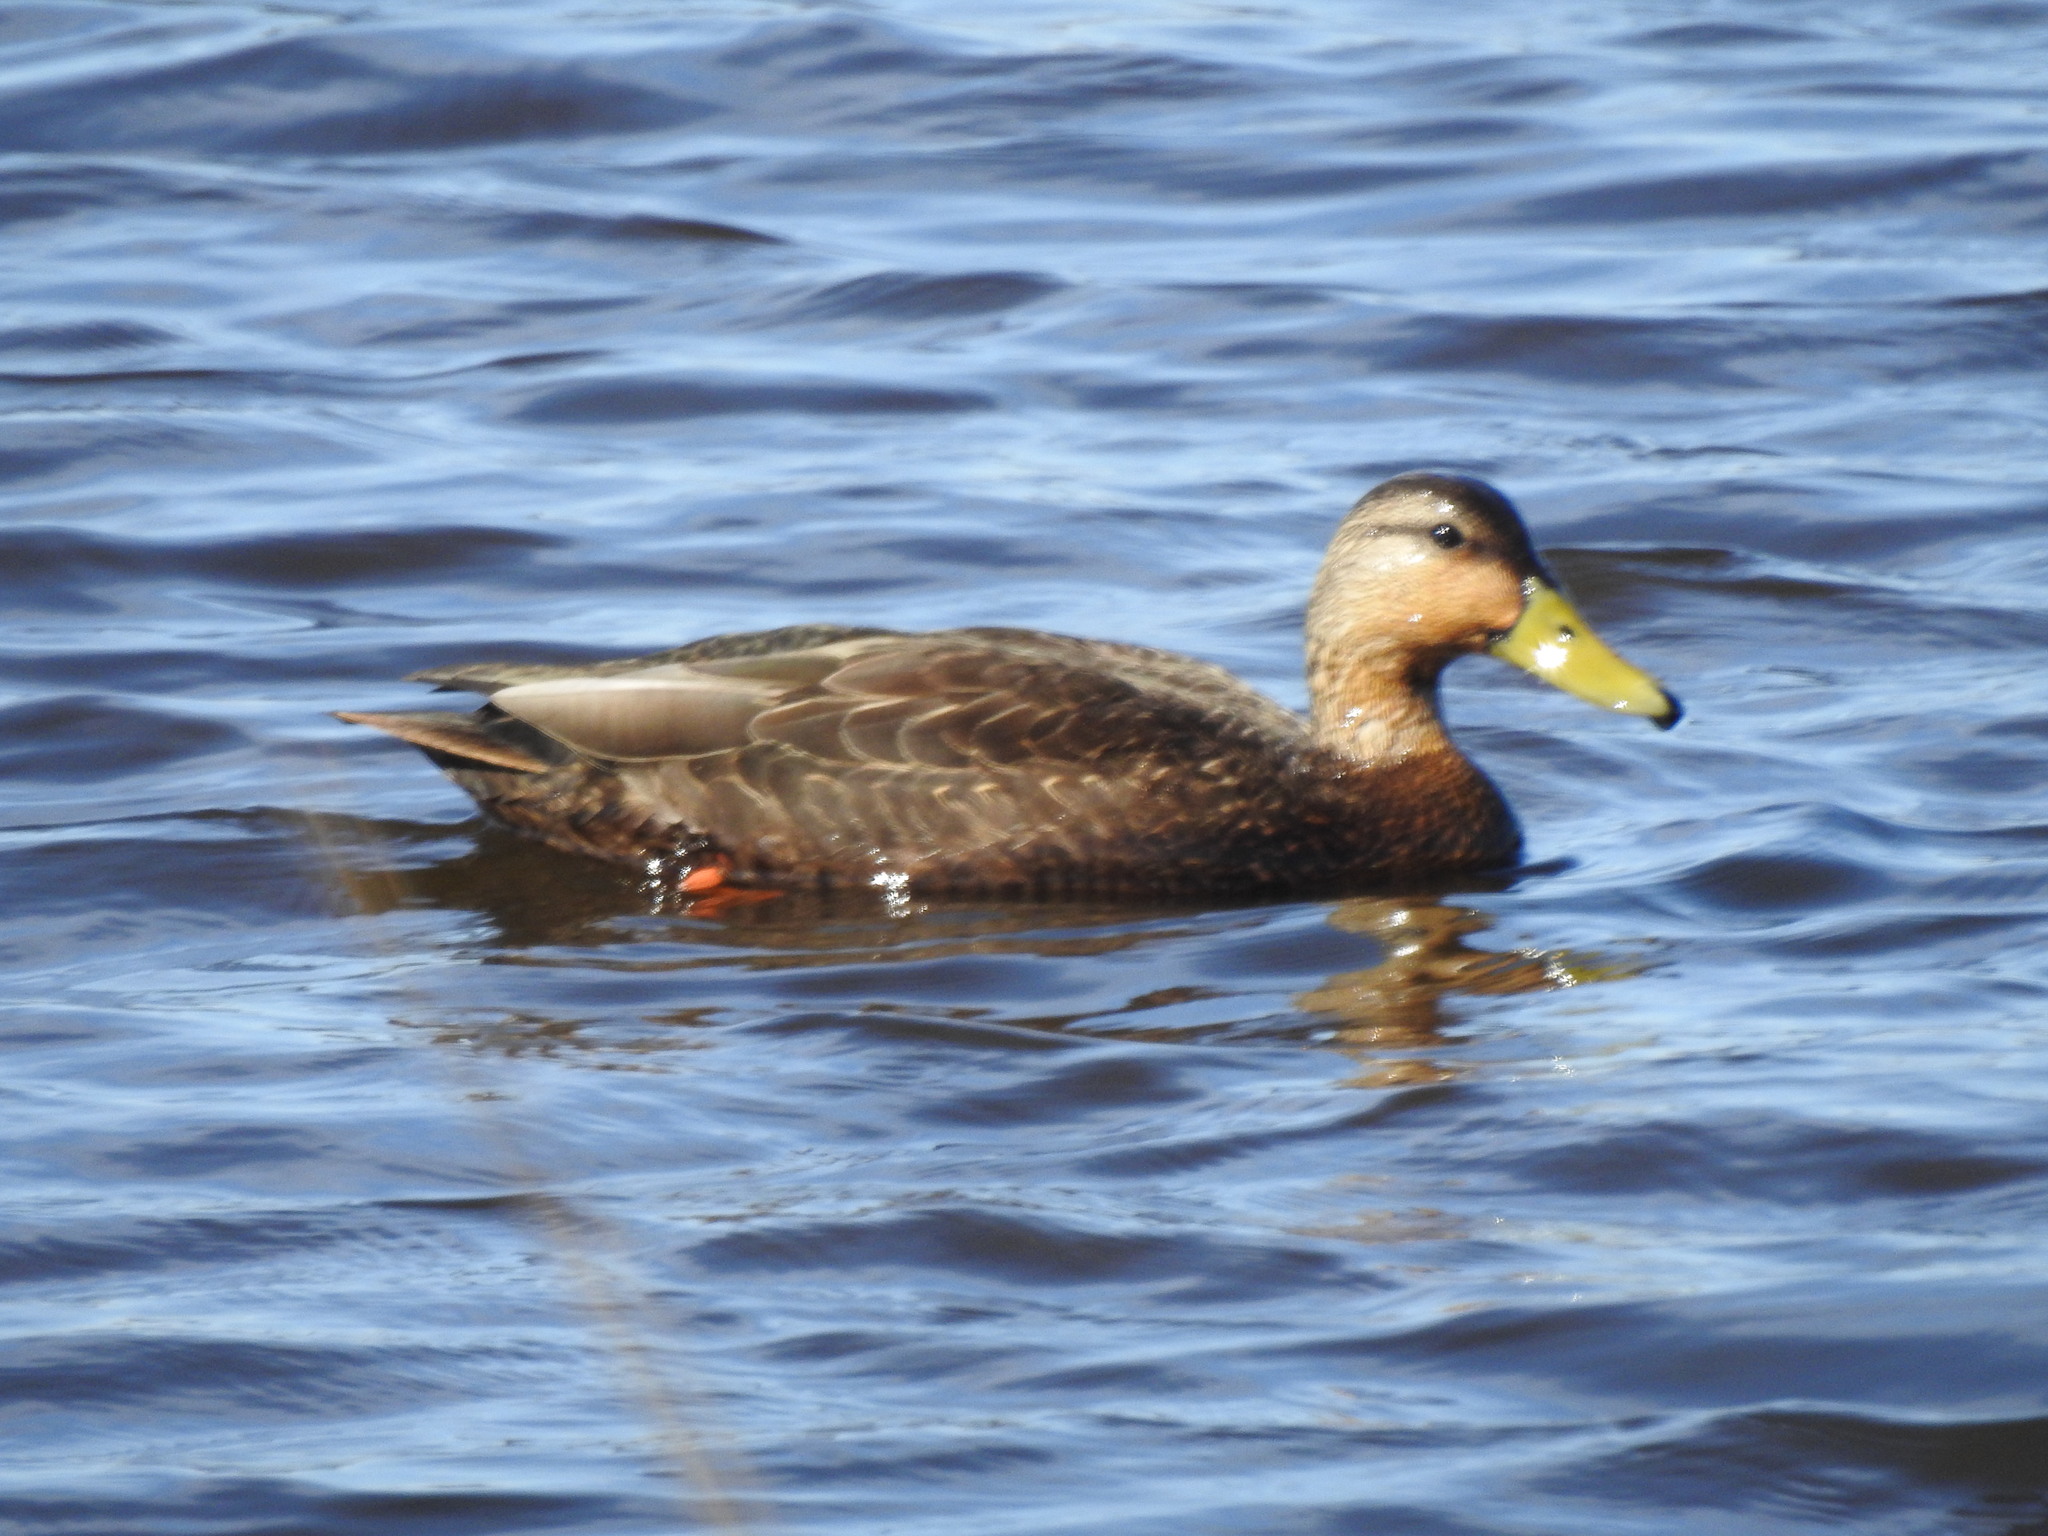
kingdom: Animalia
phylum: Chordata
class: Aves
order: Anseriformes
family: Anatidae
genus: Anas
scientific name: Anas rubripes
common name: American black duck
